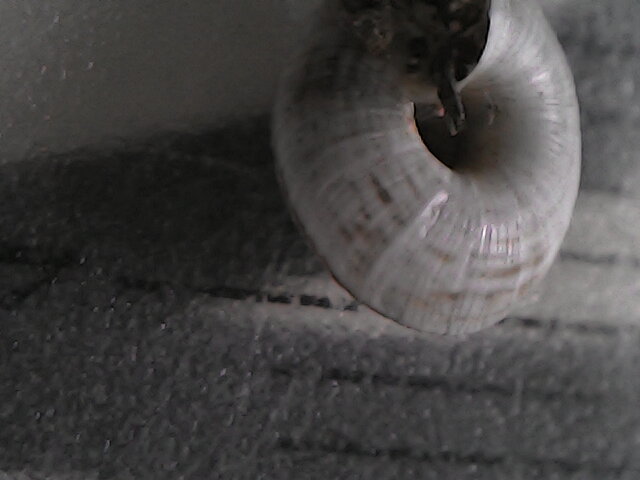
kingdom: Animalia
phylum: Mollusca
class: Gastropoda
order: Stylommatophora
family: Geomitridae
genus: Helicopsis
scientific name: Helicopsis filimargo
